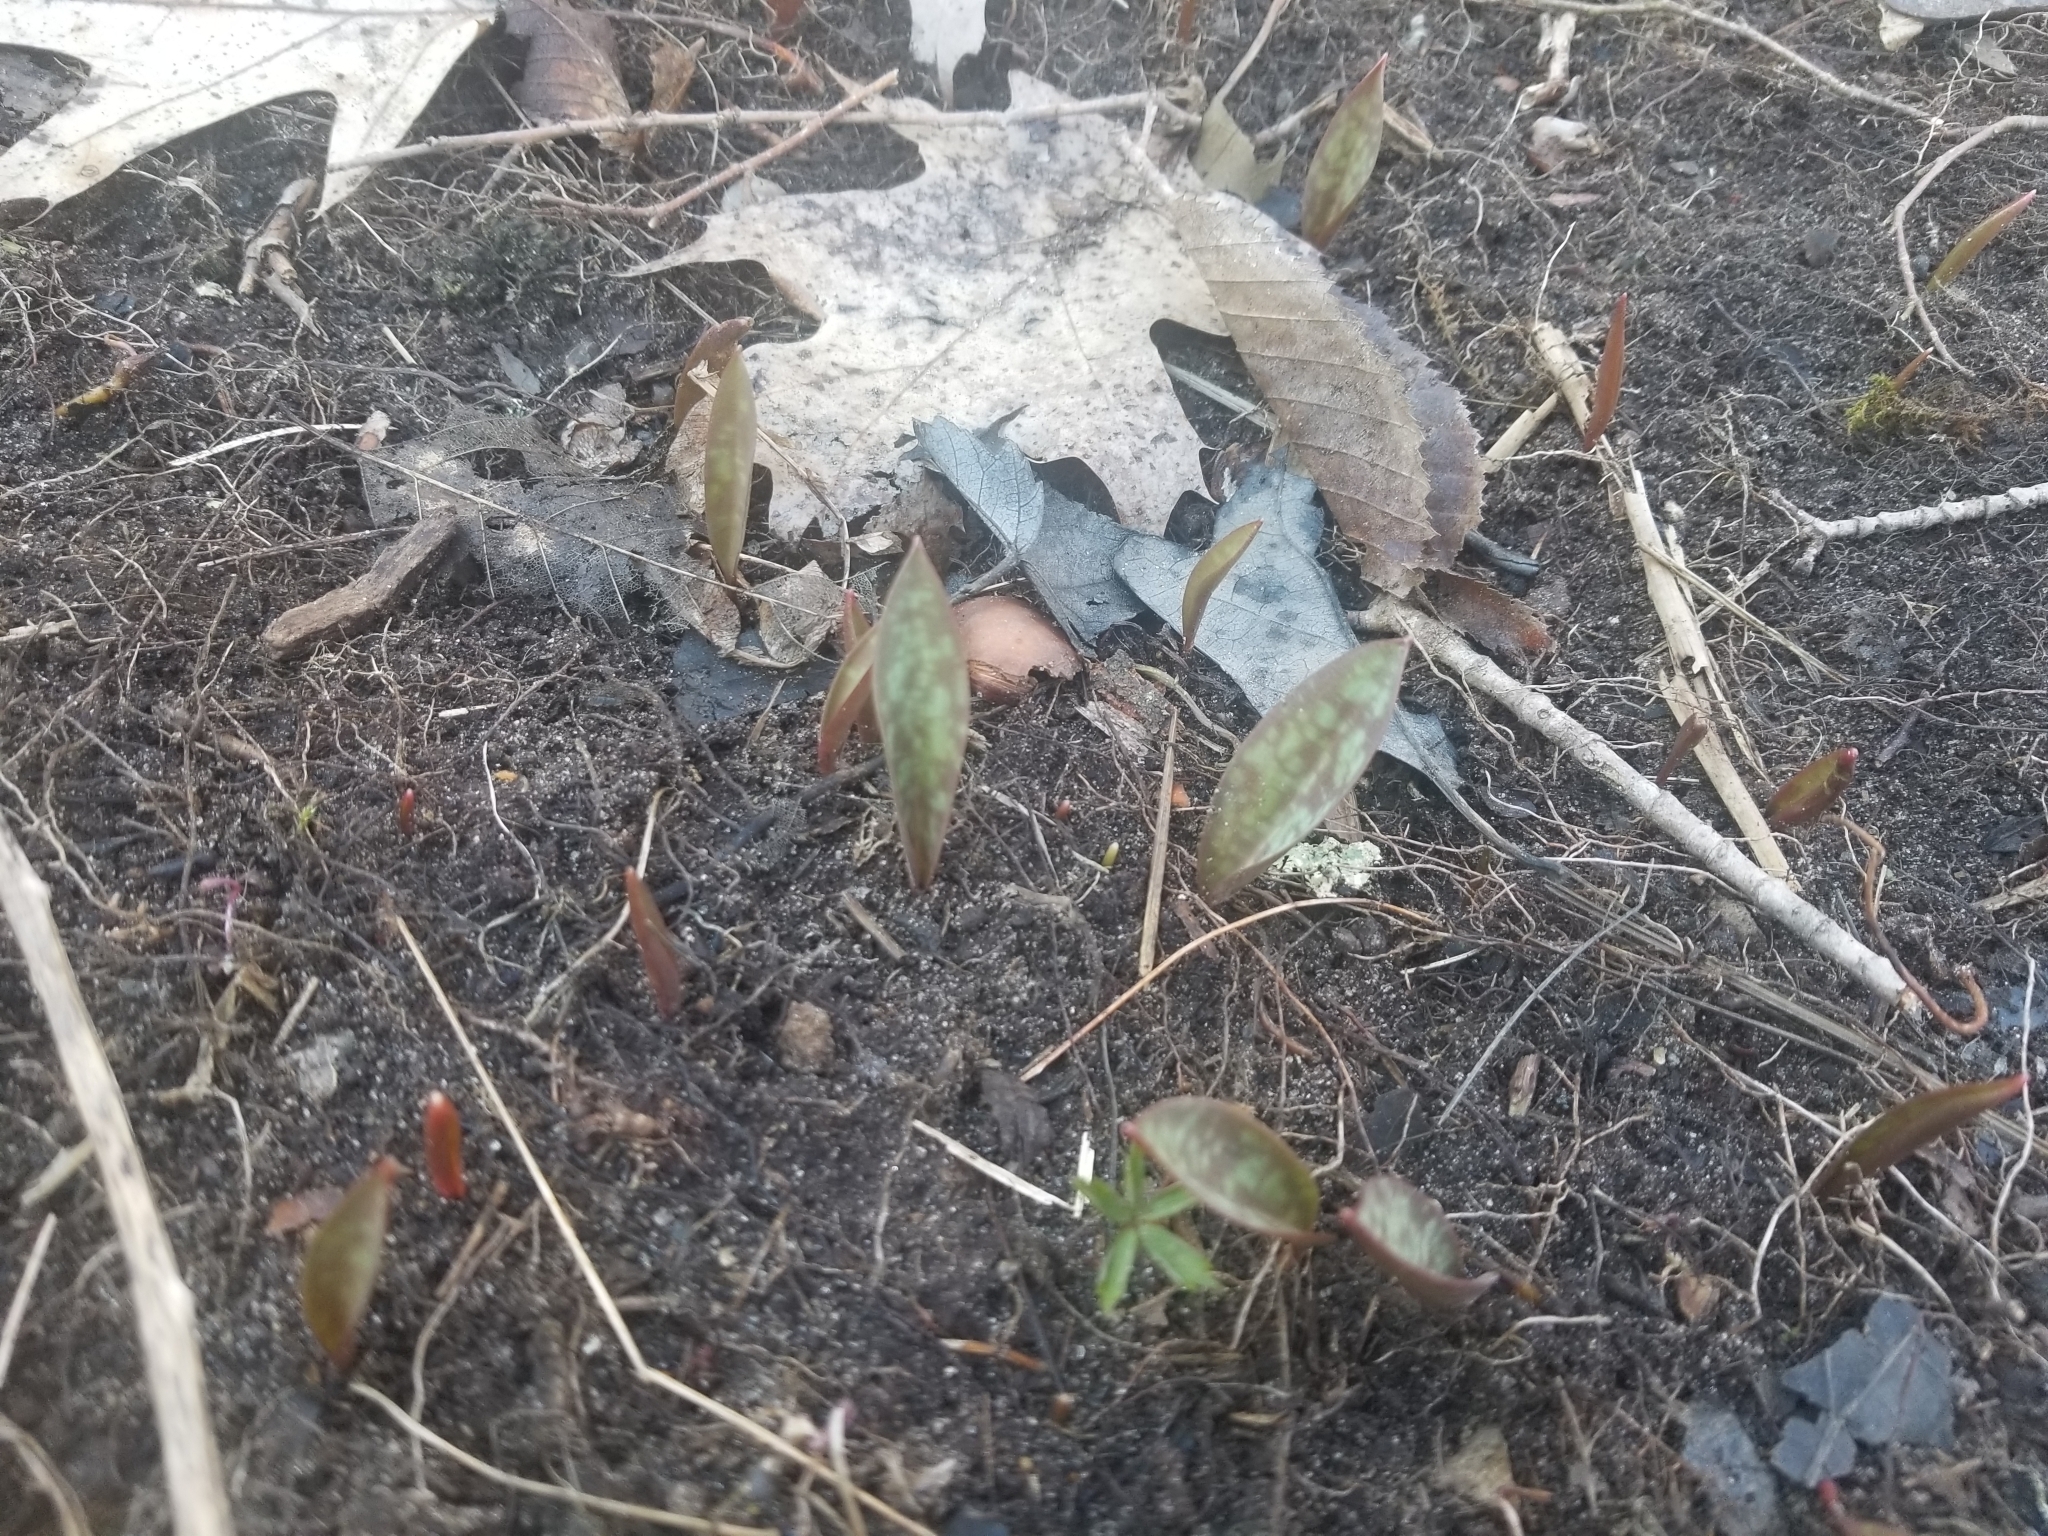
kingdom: Plantae
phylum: Tracheophyta
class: Liliopsida
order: Liliales
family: Liliaceae
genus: Erythronium
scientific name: Erythronium americanum
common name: Yellow adder's-tongue
